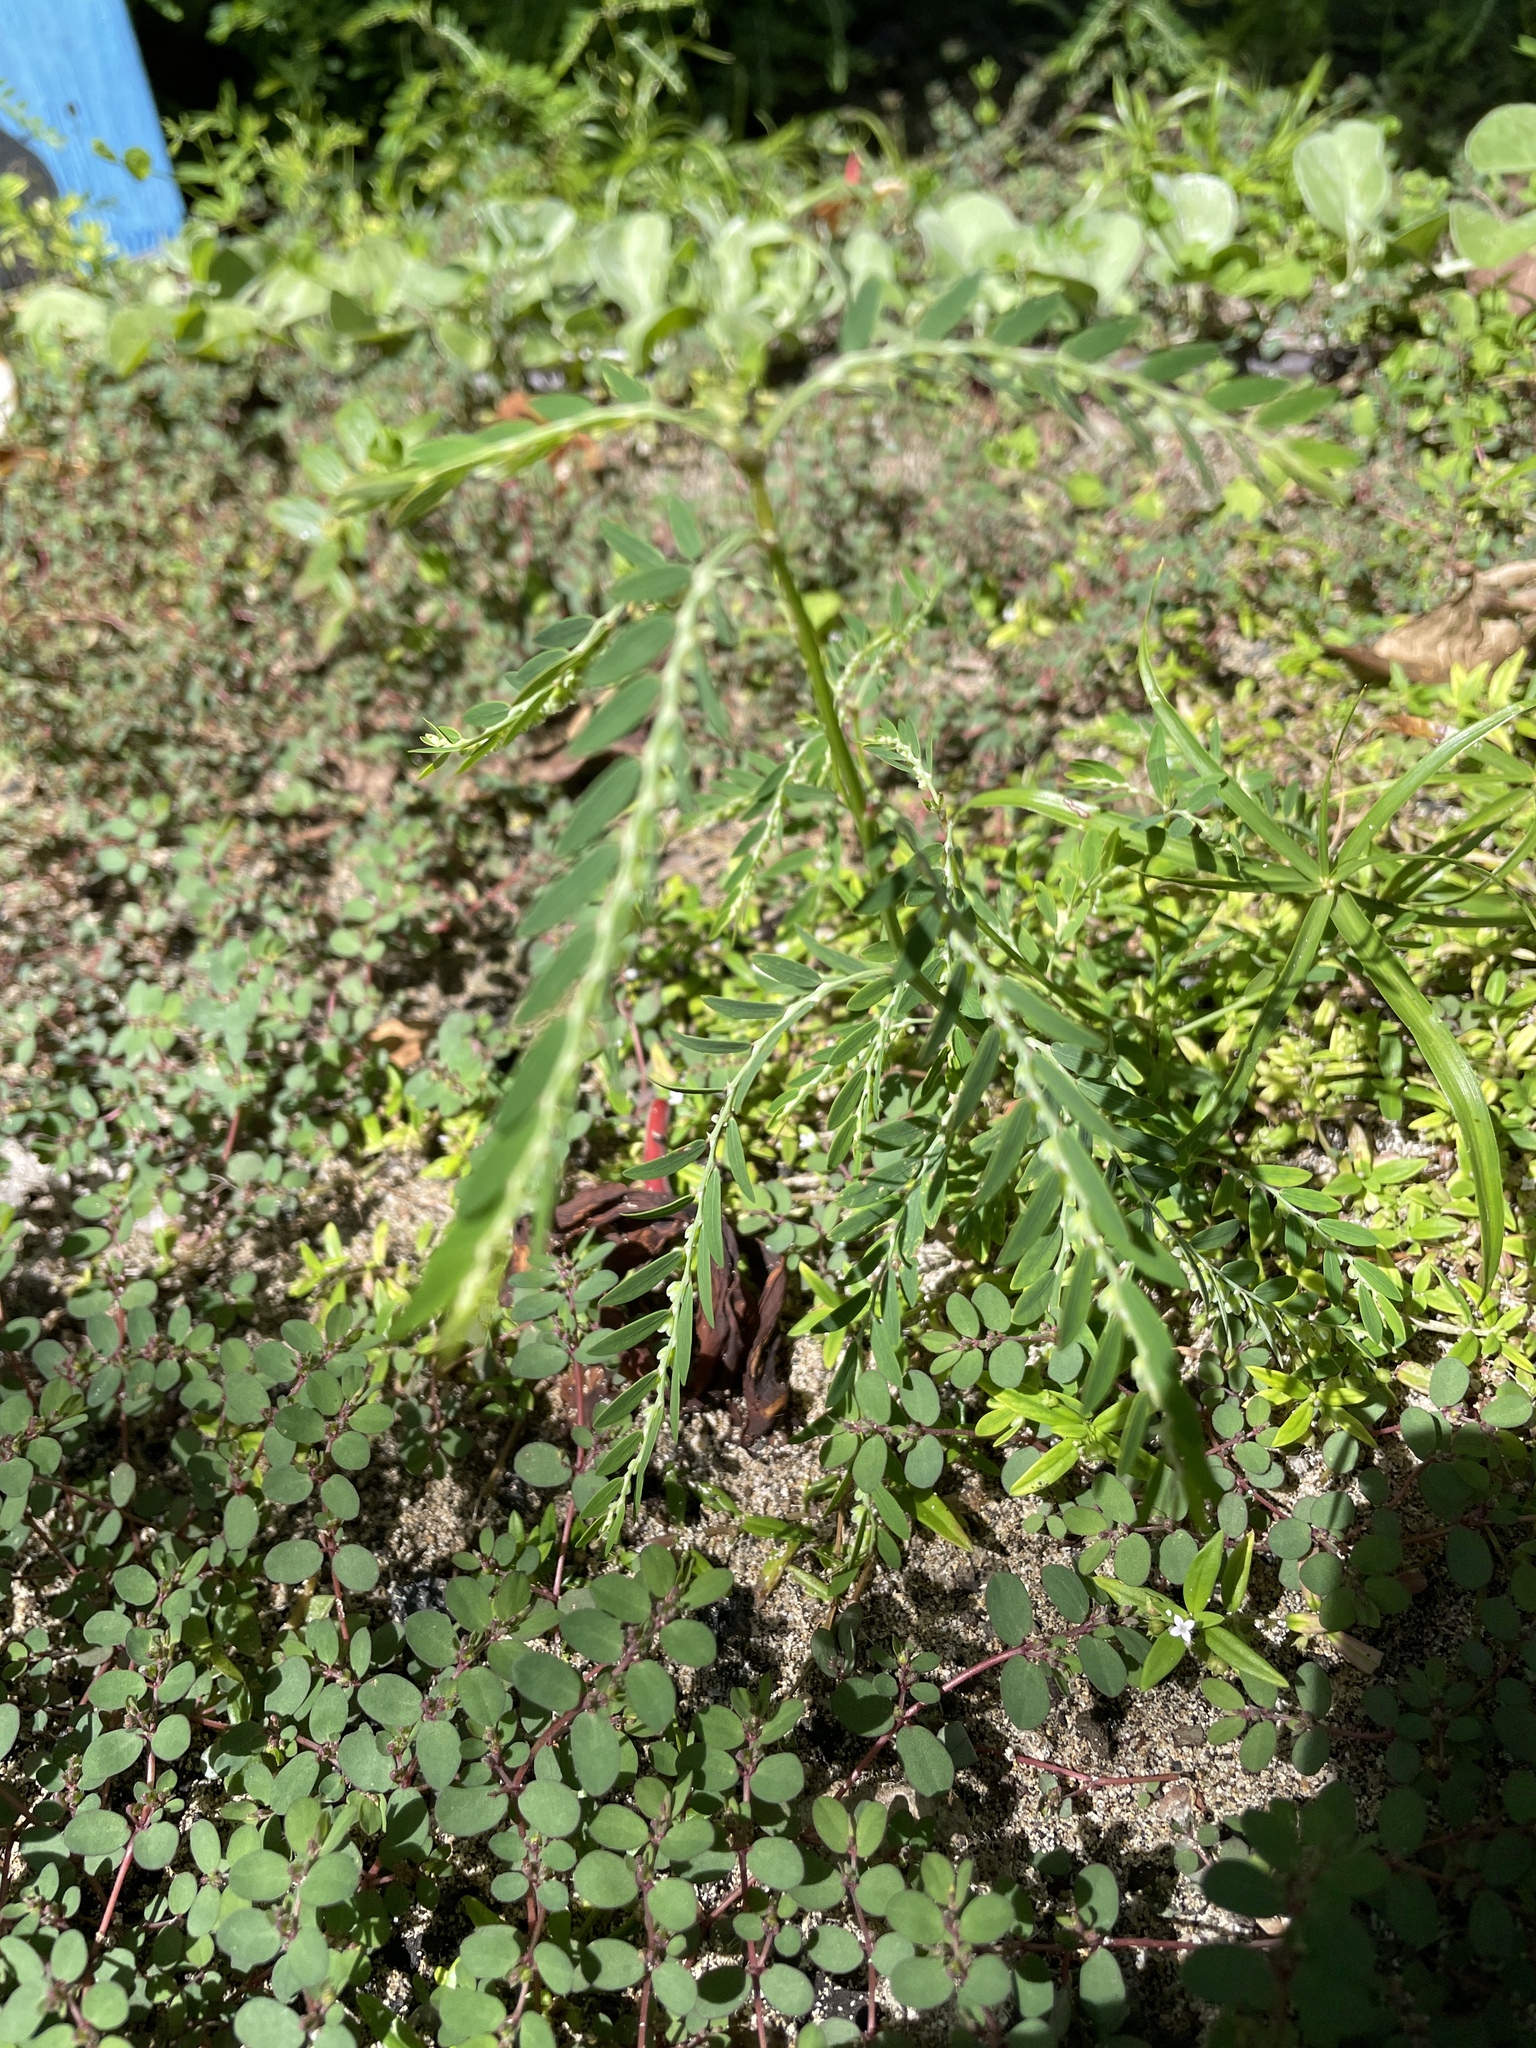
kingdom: Plantae
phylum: Tracheophyta
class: Magnoliopsida
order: Malpighiales
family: Phyllanthaceae
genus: Phyllanthus
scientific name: Phyllanthus debilis
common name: Niruri
